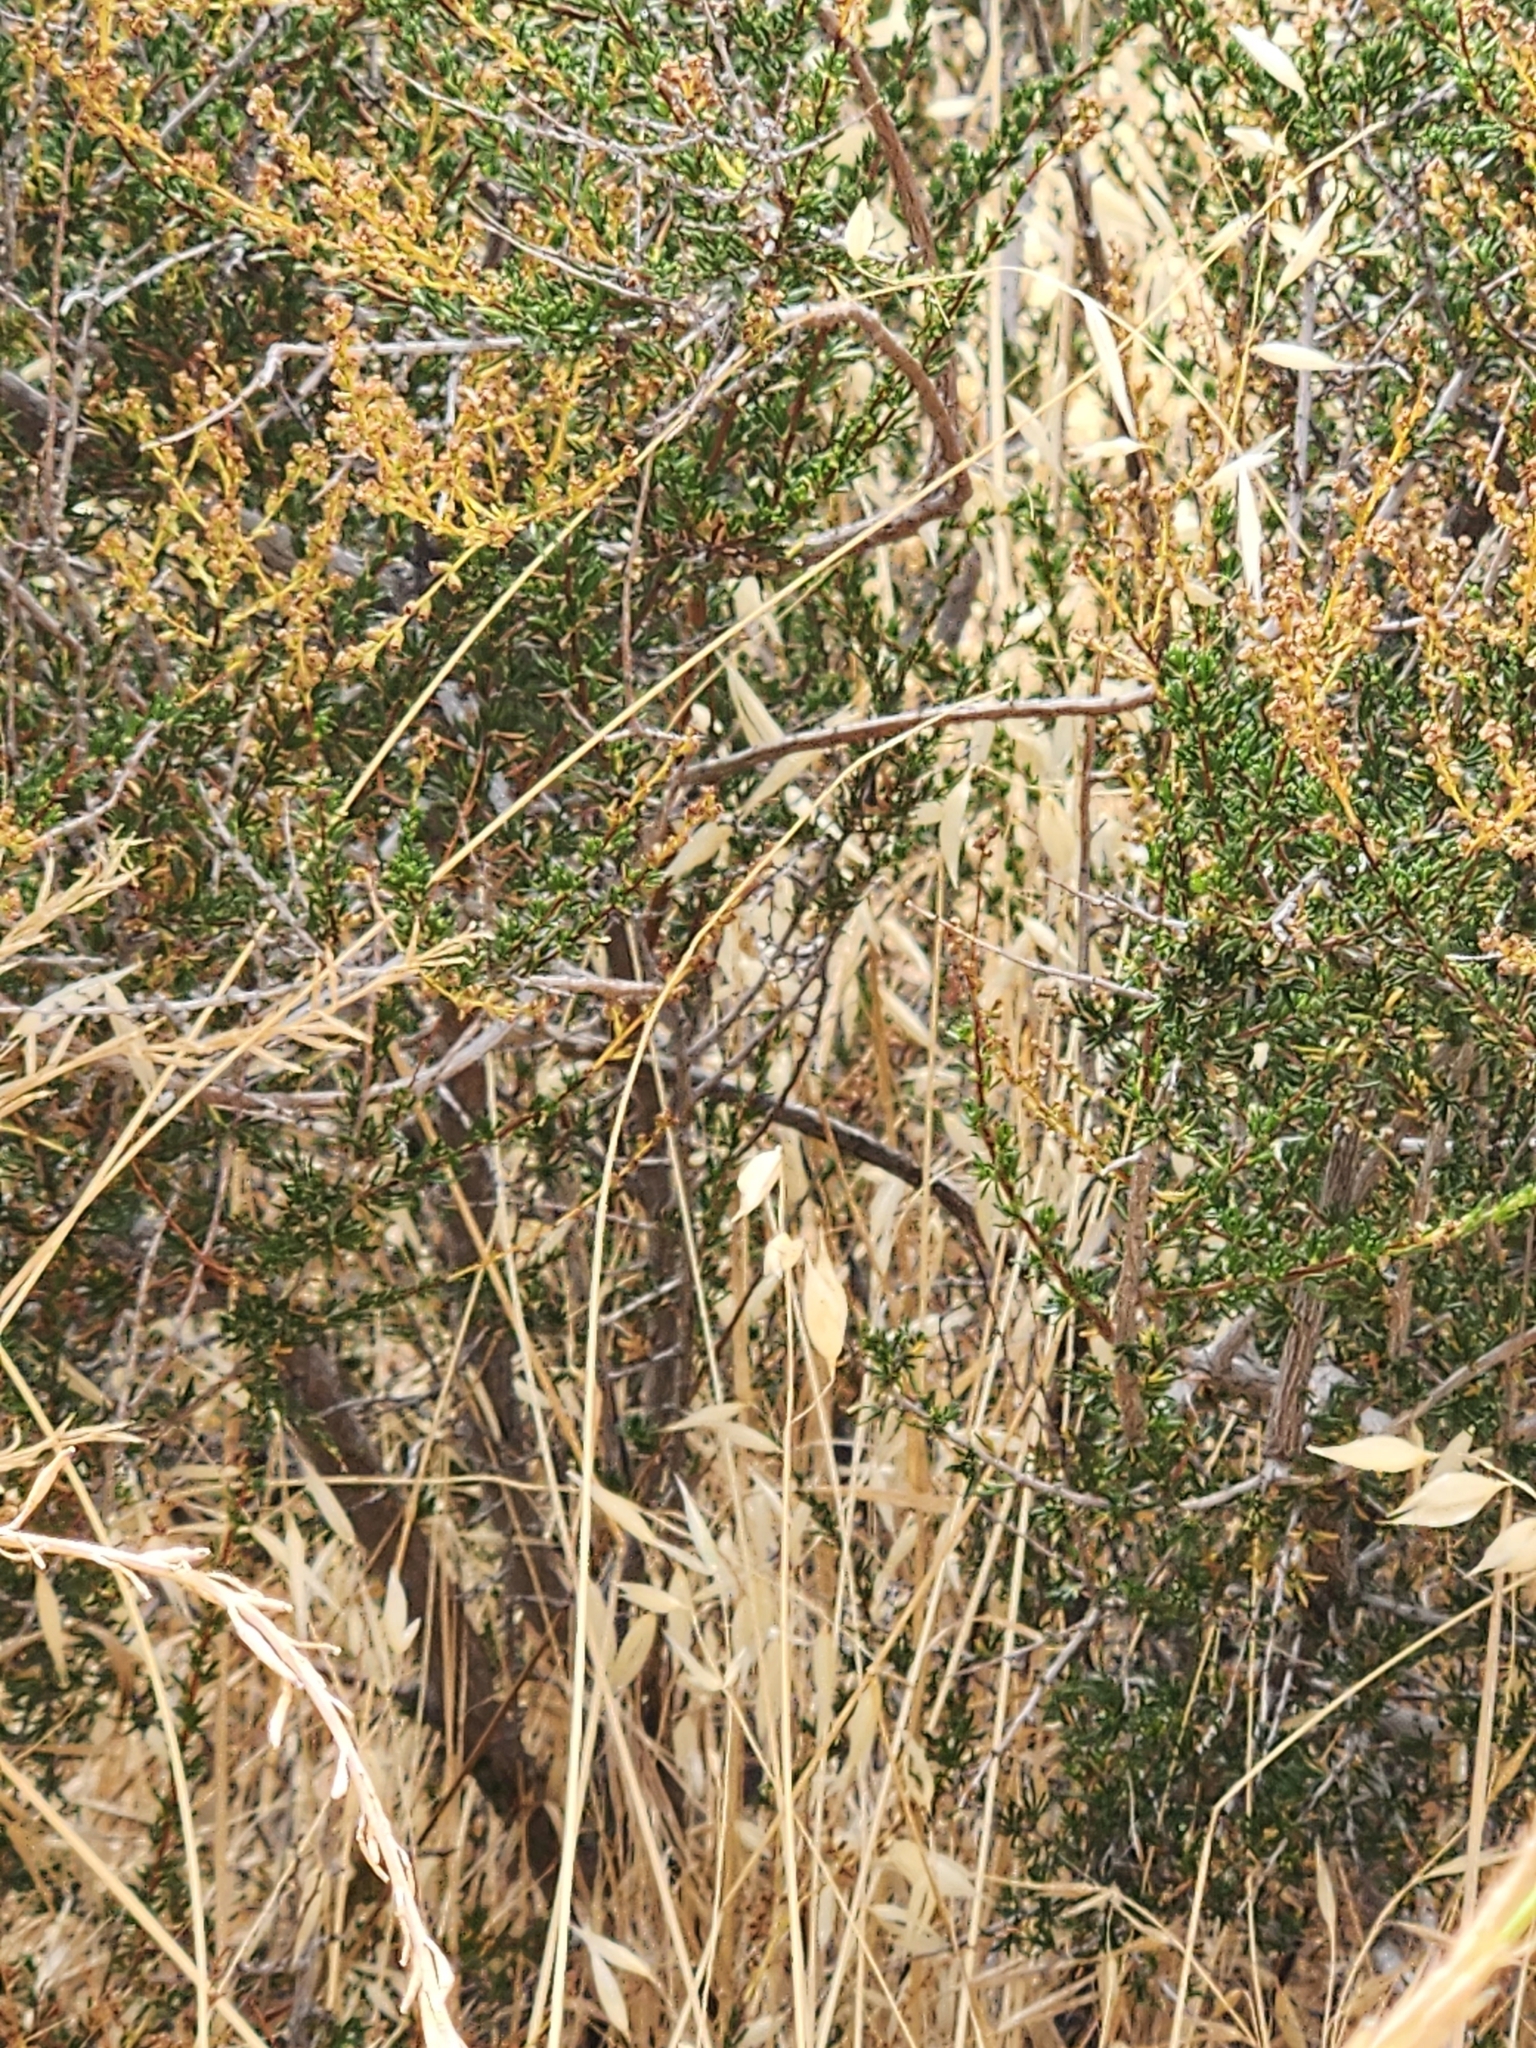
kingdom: Plantae
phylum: Tracheophyta
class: Magnoliopsida
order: Rosales
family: Rosaceae
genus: Adenostoma
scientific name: Adenostoma fasciculatum
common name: Chamise
